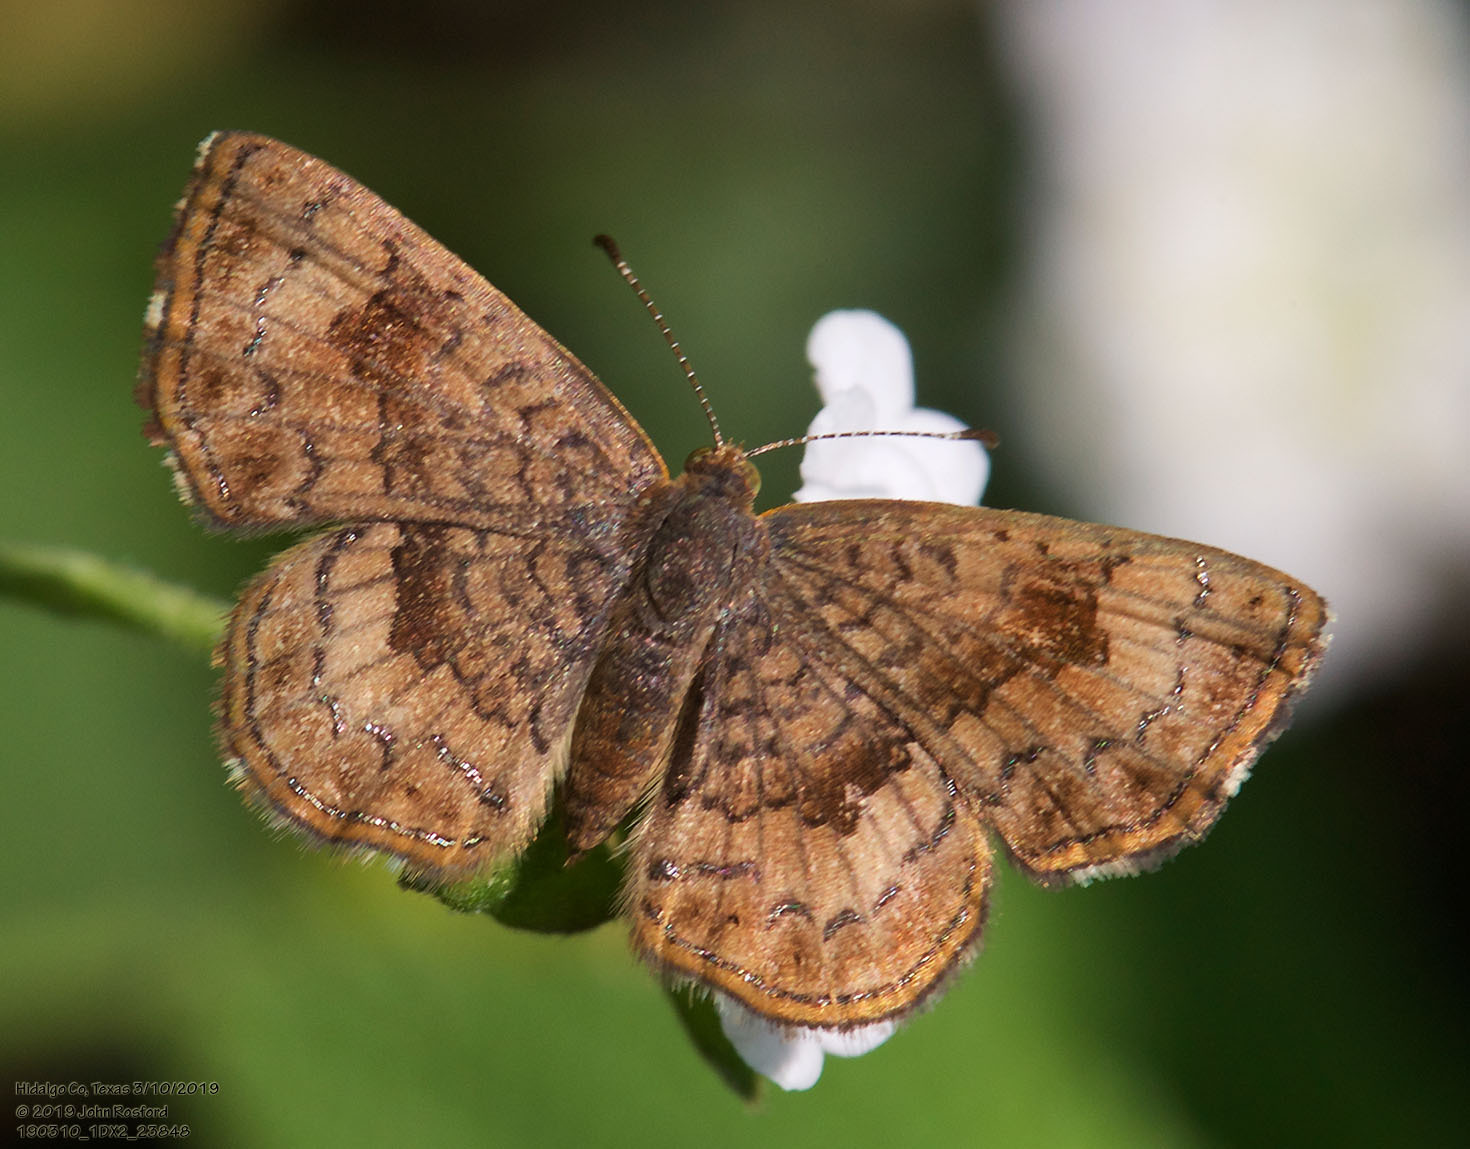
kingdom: Animalia
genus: Calephelis
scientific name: Calephelis nemesis
